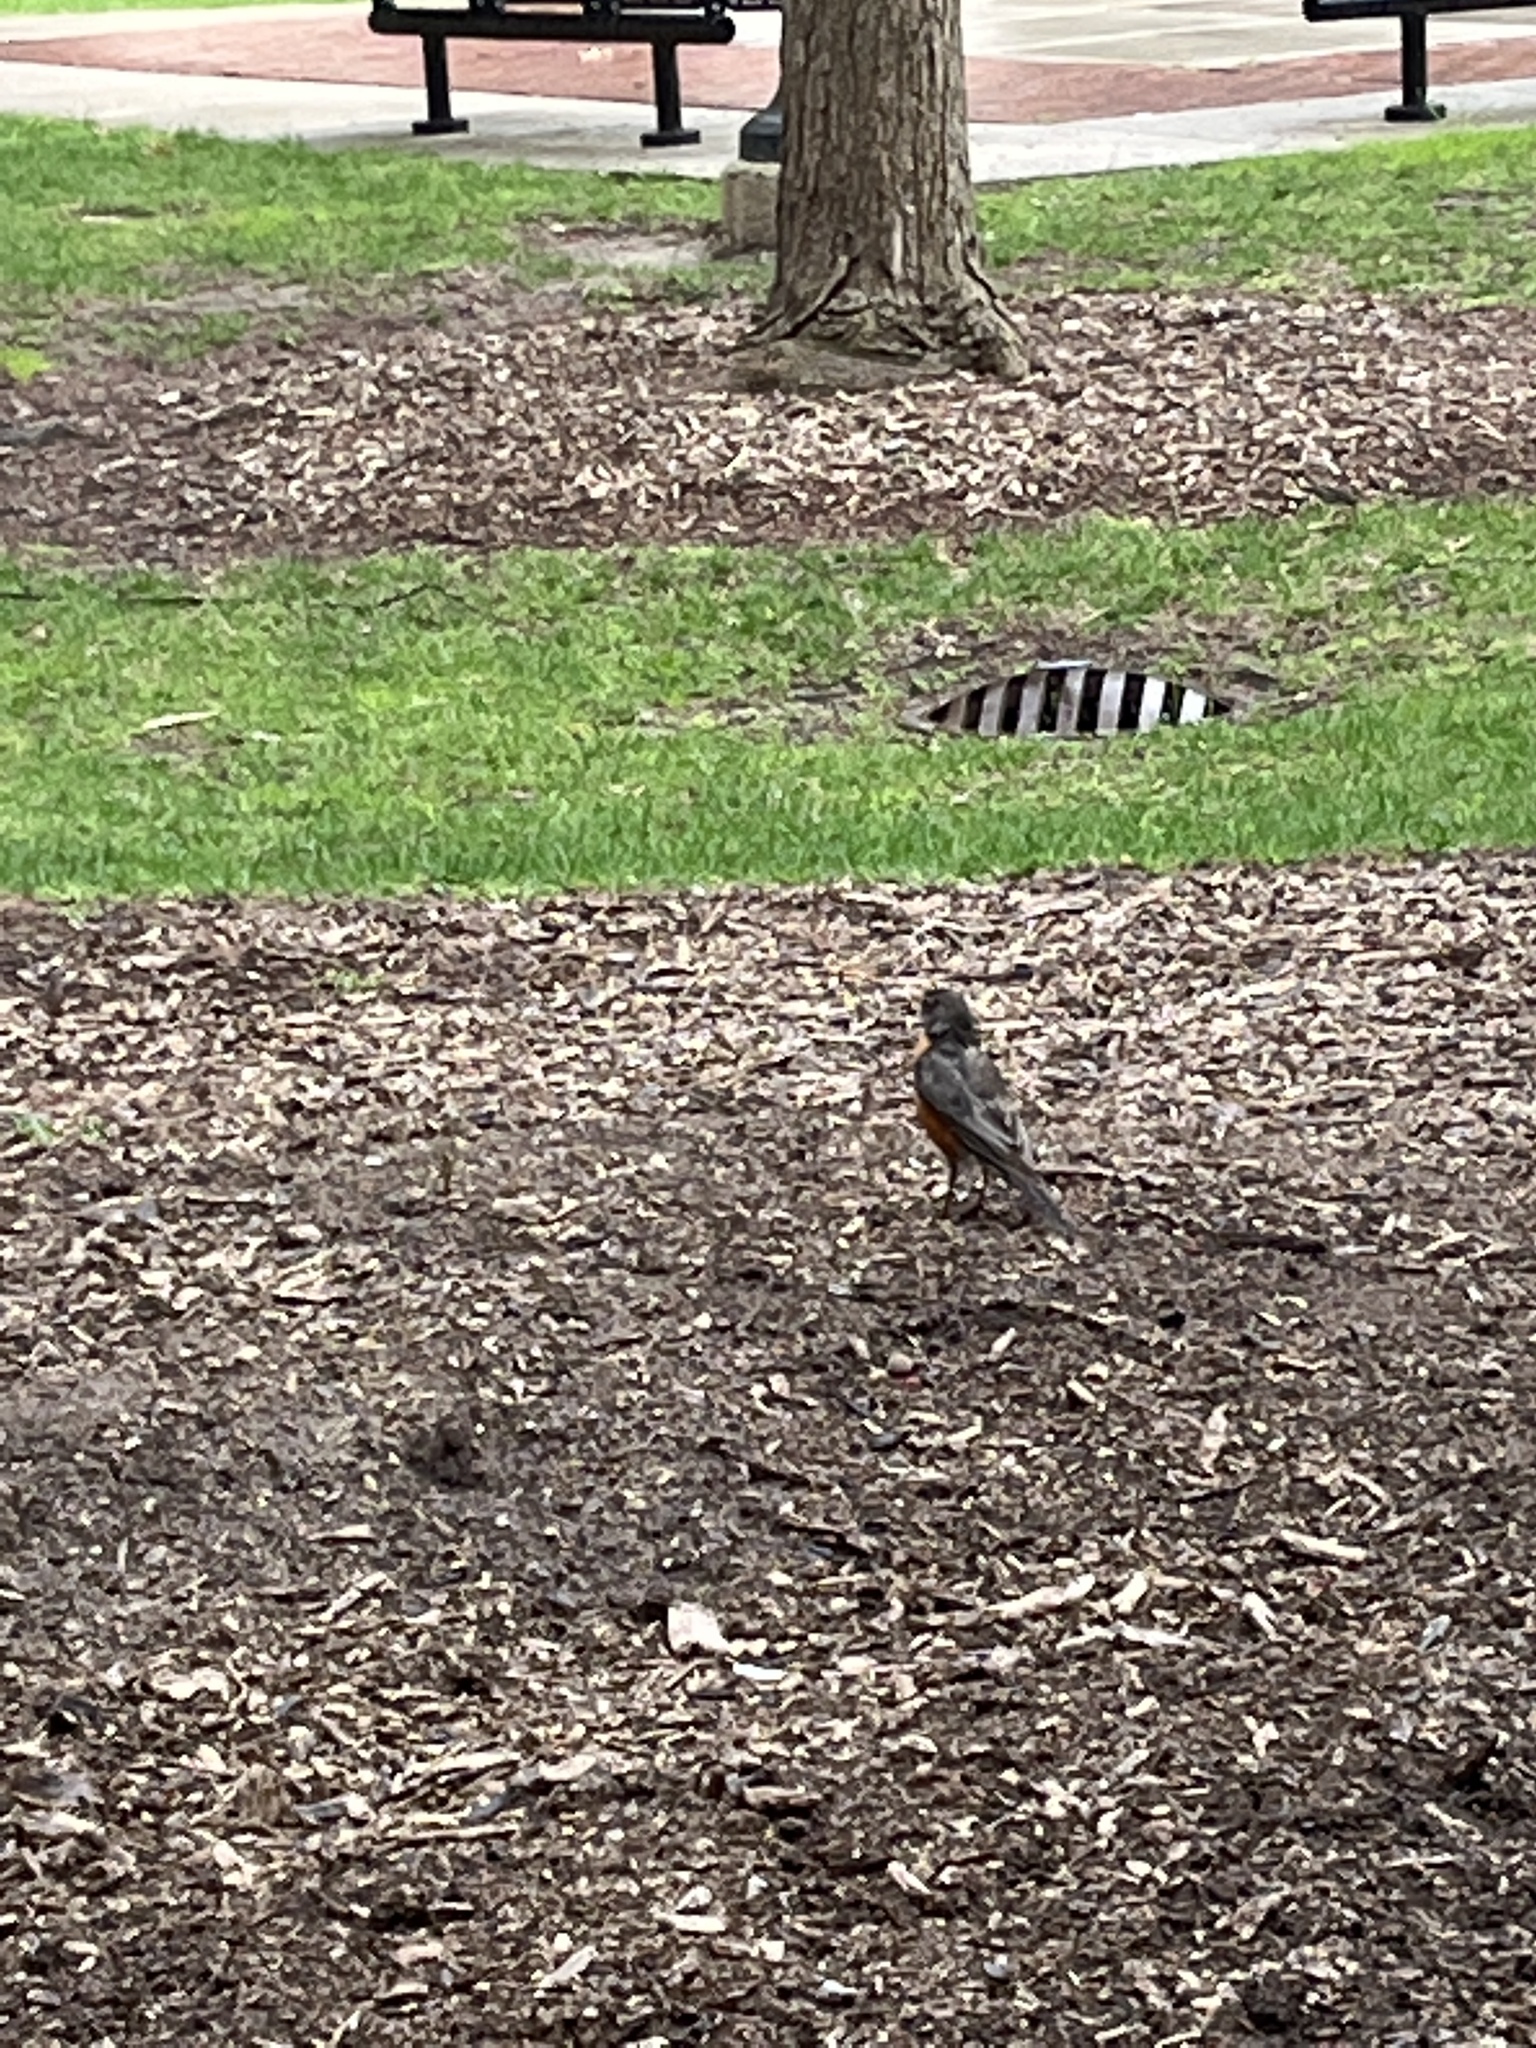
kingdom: Animalia
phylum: Chordata
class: Aves
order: Passeriformes
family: Turdidae
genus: Turdus
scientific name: Turdus migratorius
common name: American robin
